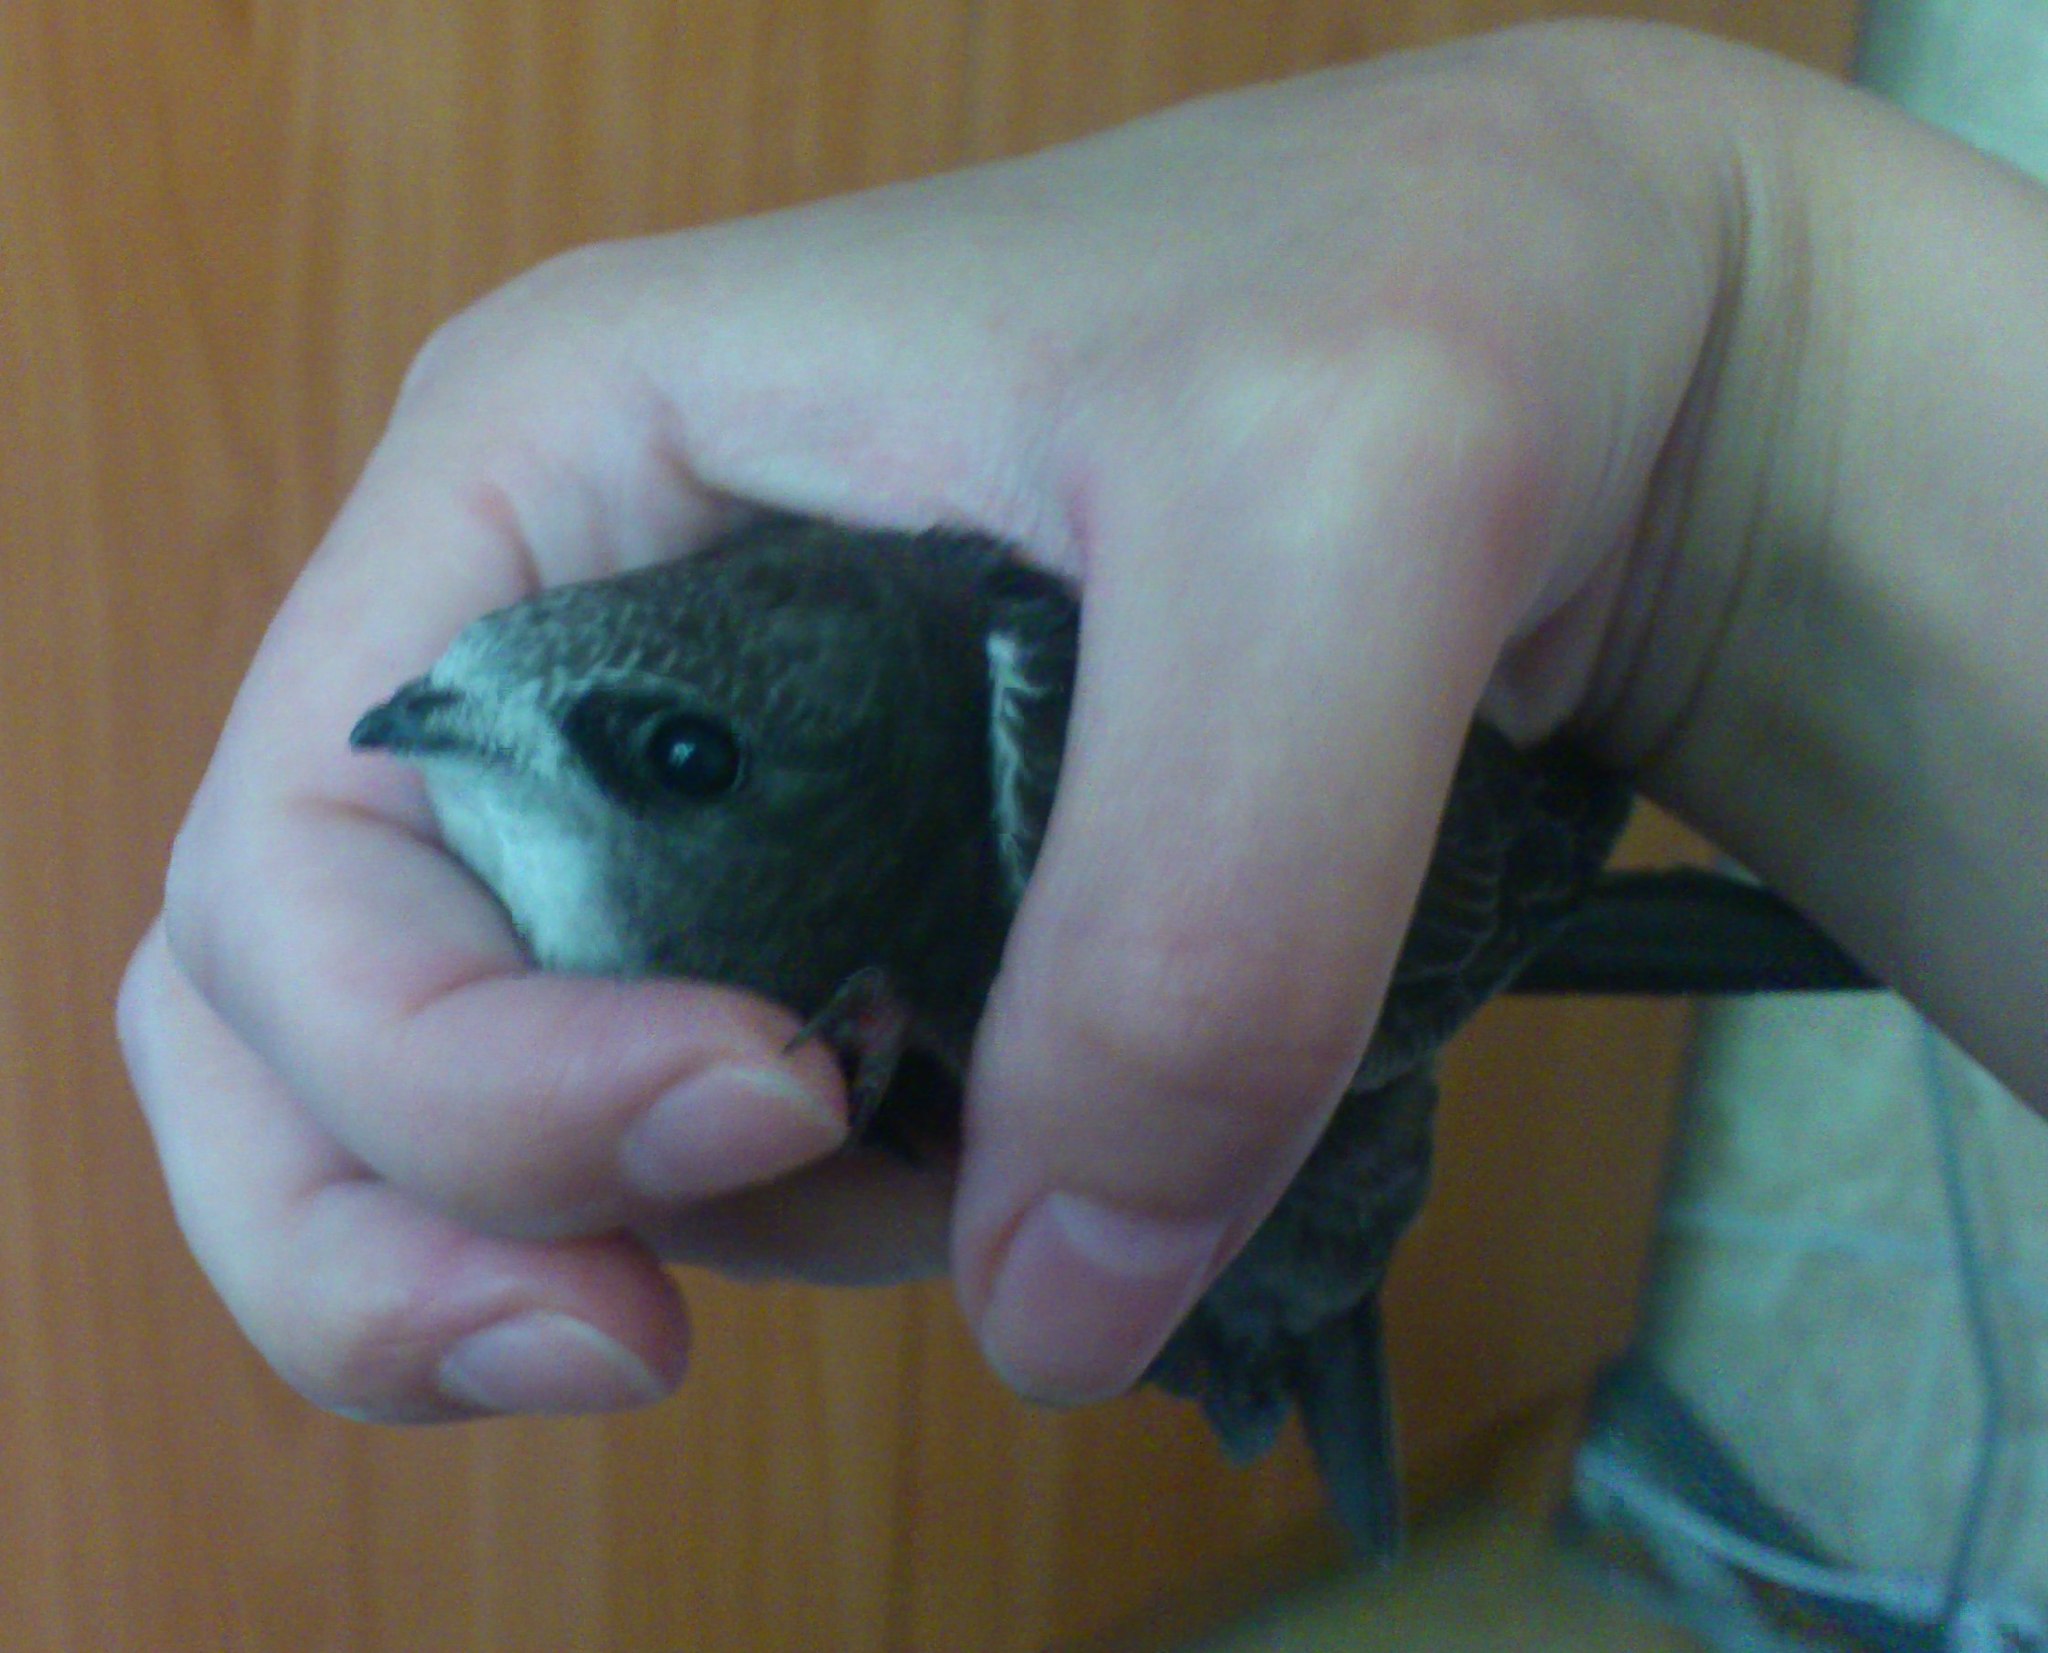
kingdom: Animalia
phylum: Chordata
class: Aves
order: Apodiformes
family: Apodidae
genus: Apus
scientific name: Apus apus
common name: Common swift
